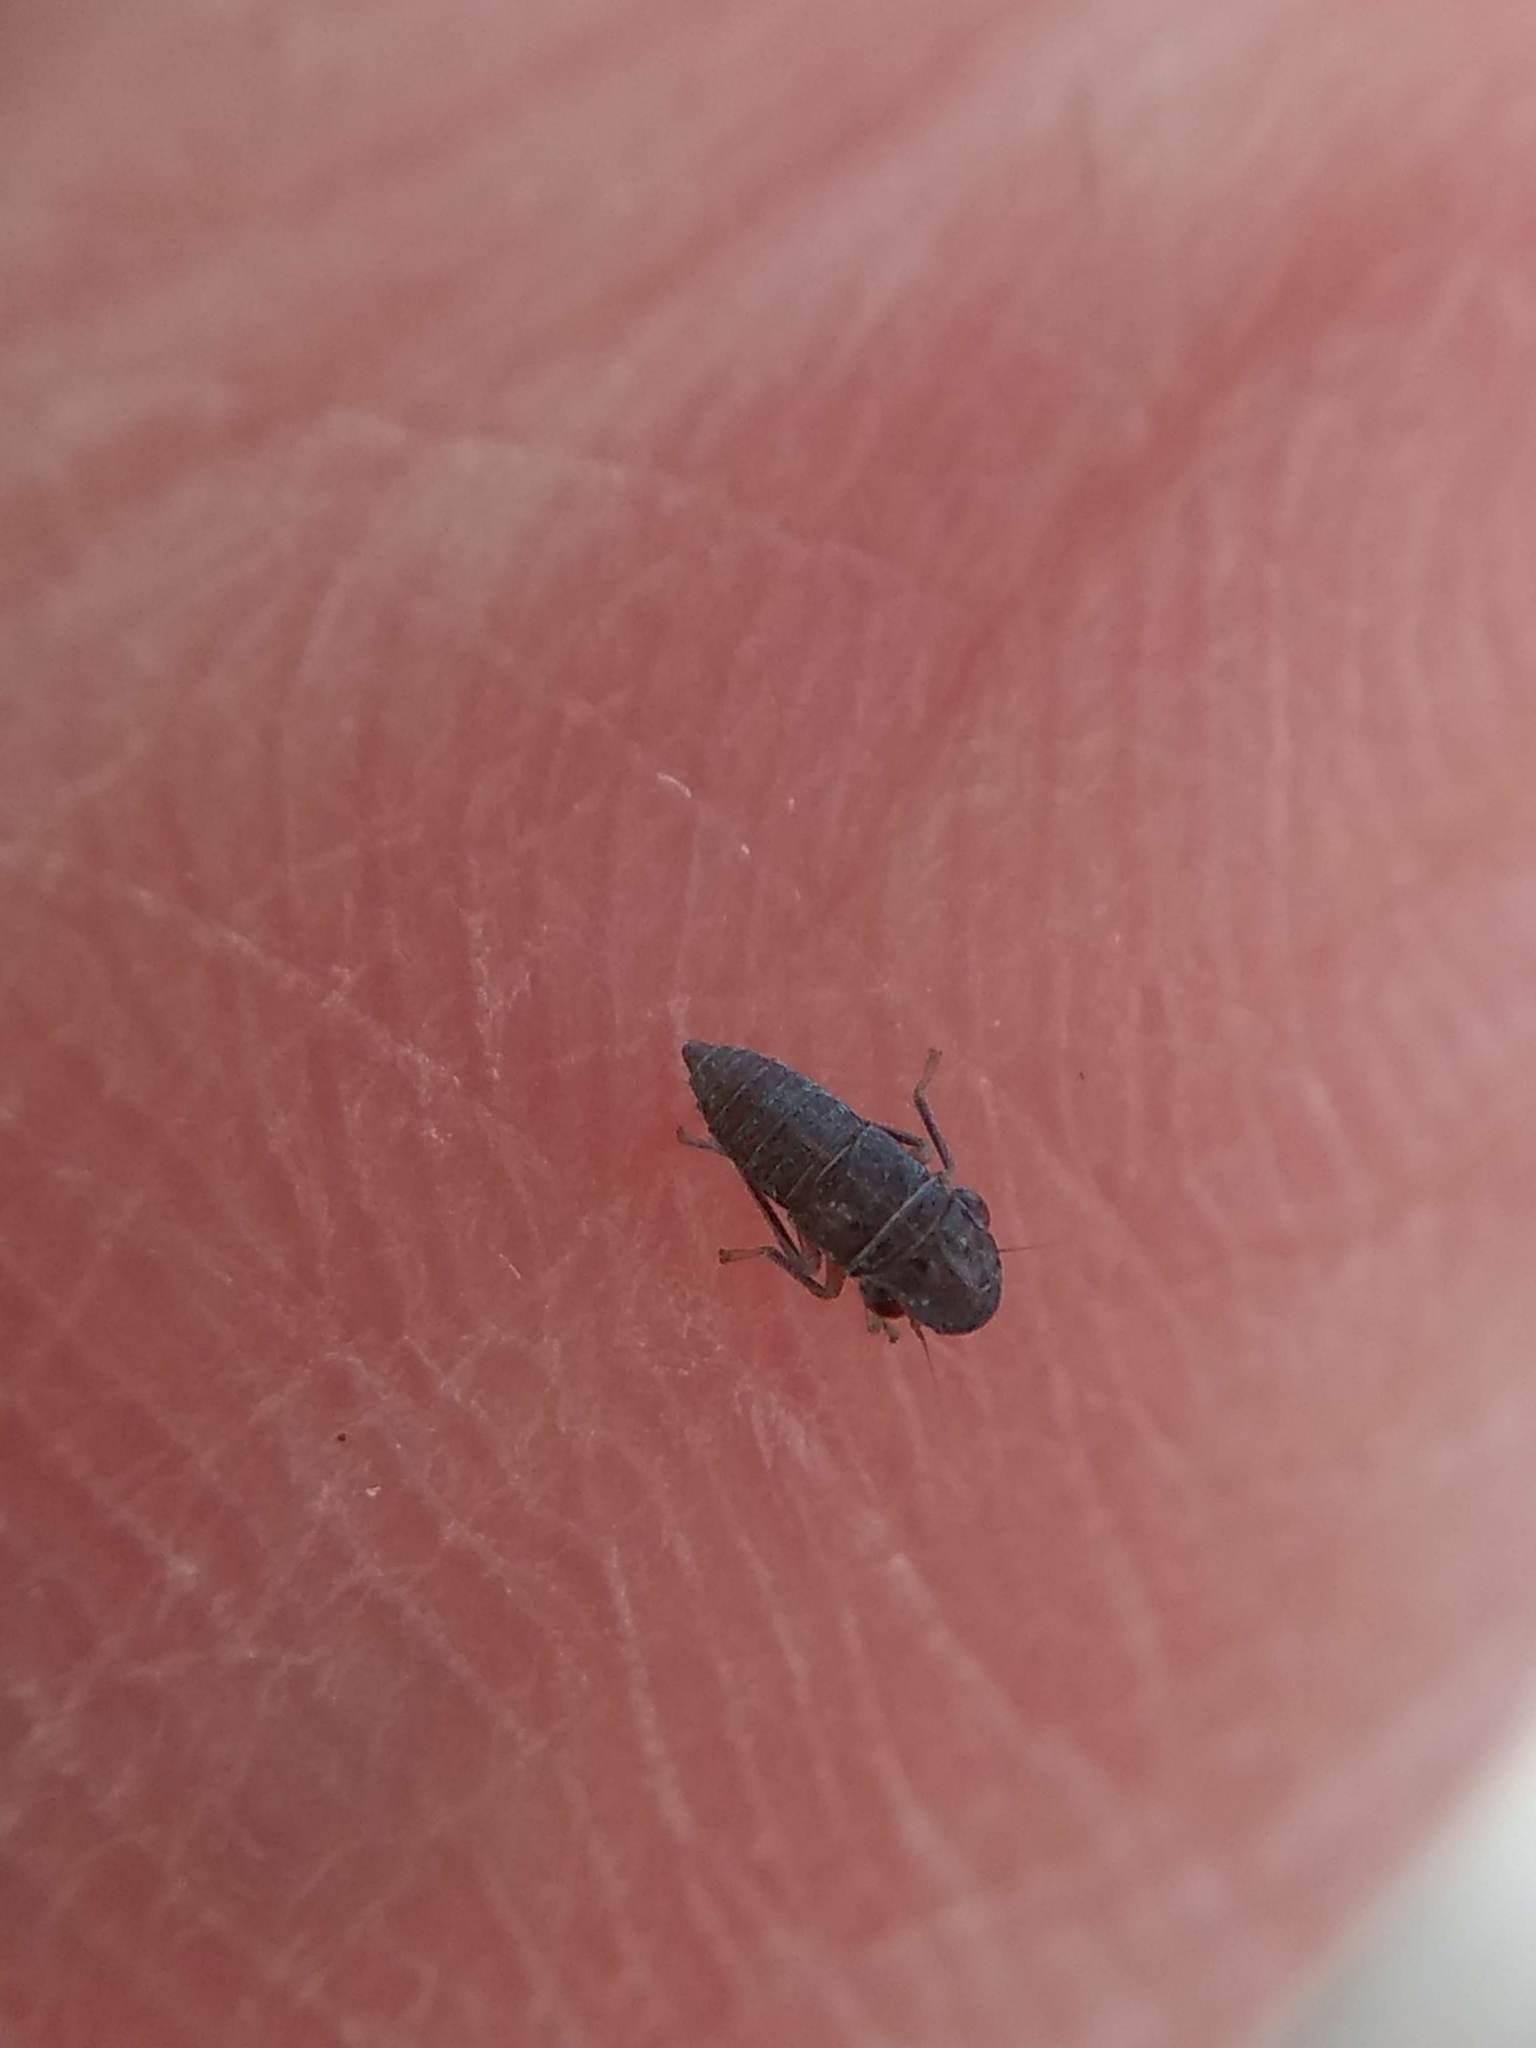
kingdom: Animalia
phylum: Arthropoda
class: Insecta
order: Hemiptera
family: Cicadellidae
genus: Homalodisca
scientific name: Homalodisca
